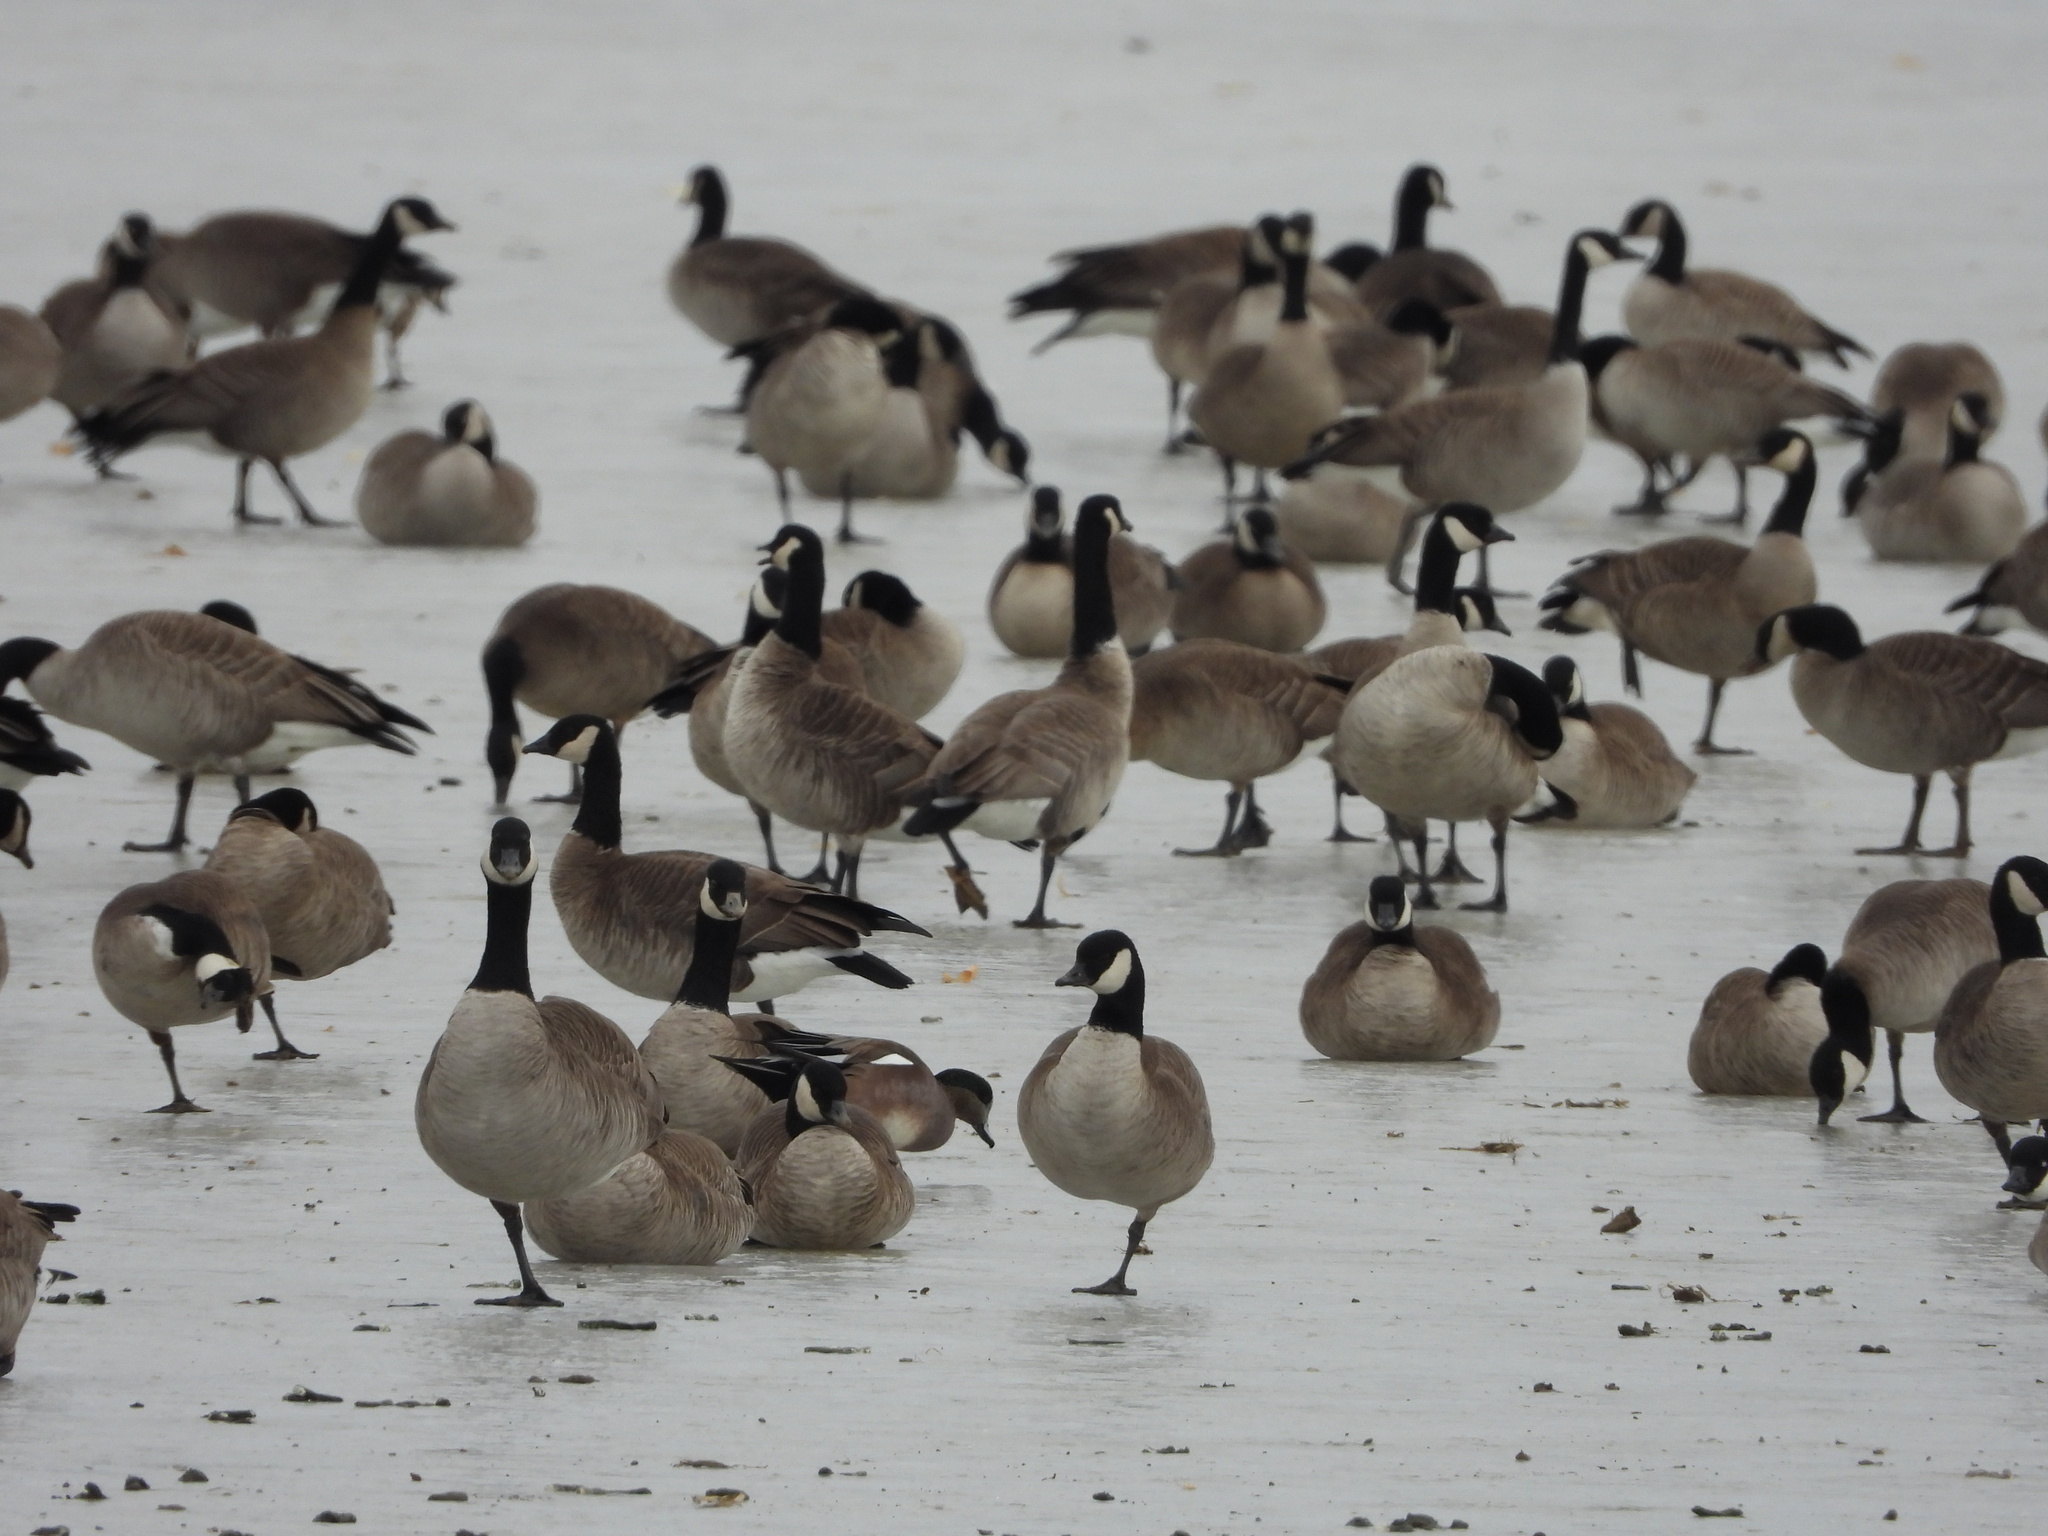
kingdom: Animalia
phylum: Chordata
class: Aves
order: Anseriformes
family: Anatidae
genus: Mareca
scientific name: Mareca americana
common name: American wigeon
